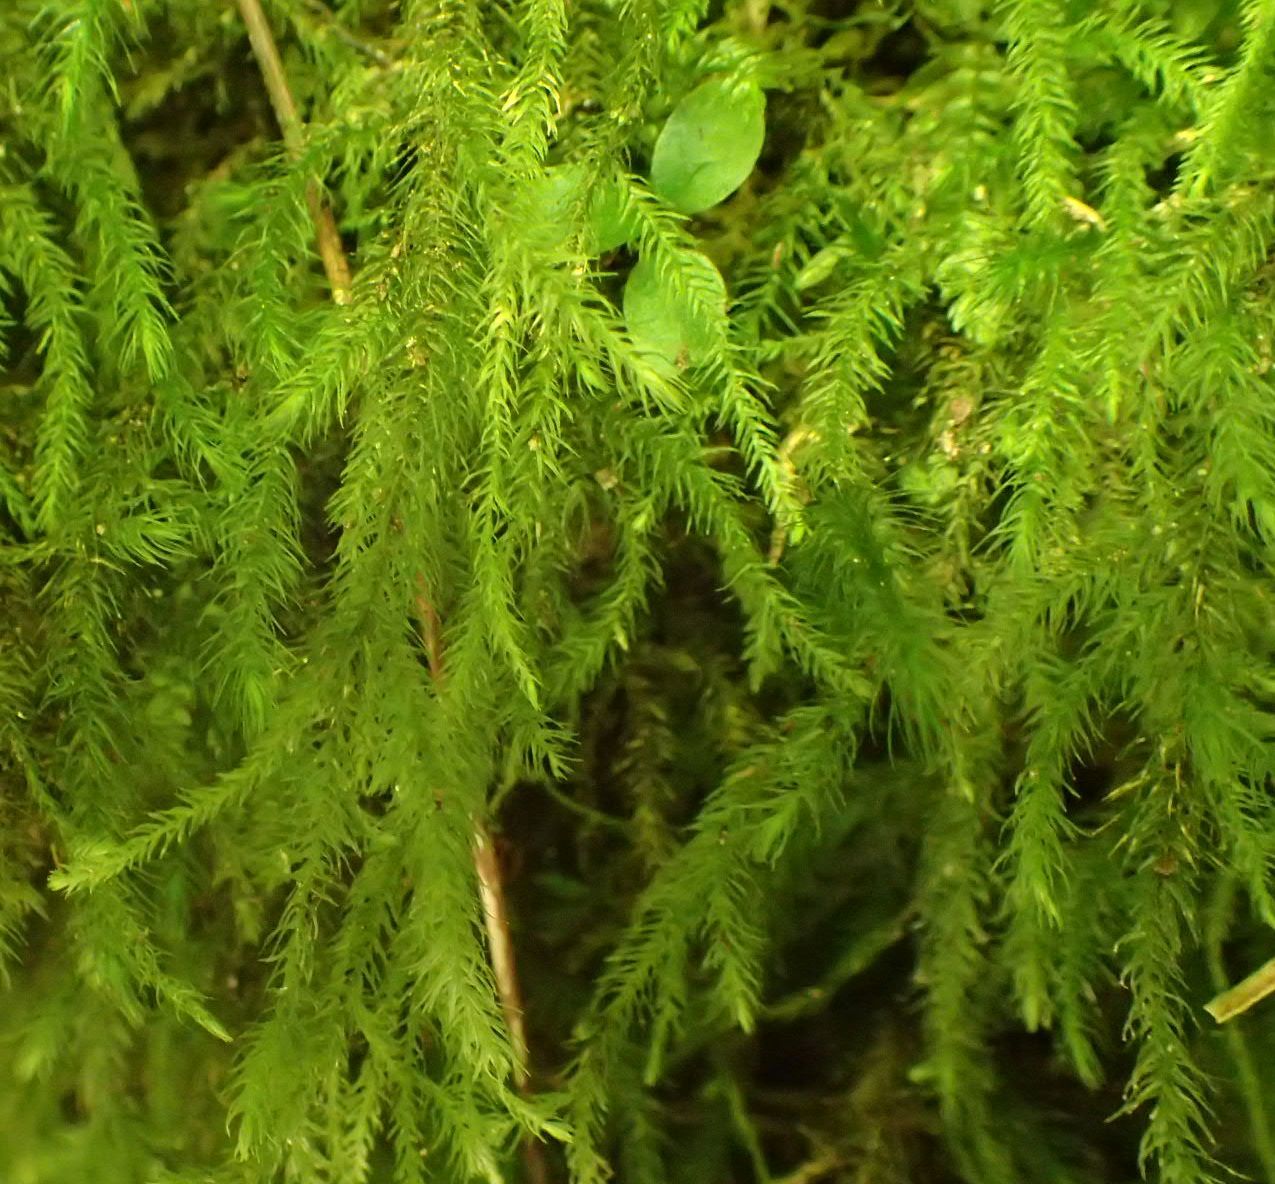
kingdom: Plantae
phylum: Bryophyta
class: Bryopsida
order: Hypnales
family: Neckeraceae
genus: Echinodiopsis
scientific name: Echinodiopsis hispida
